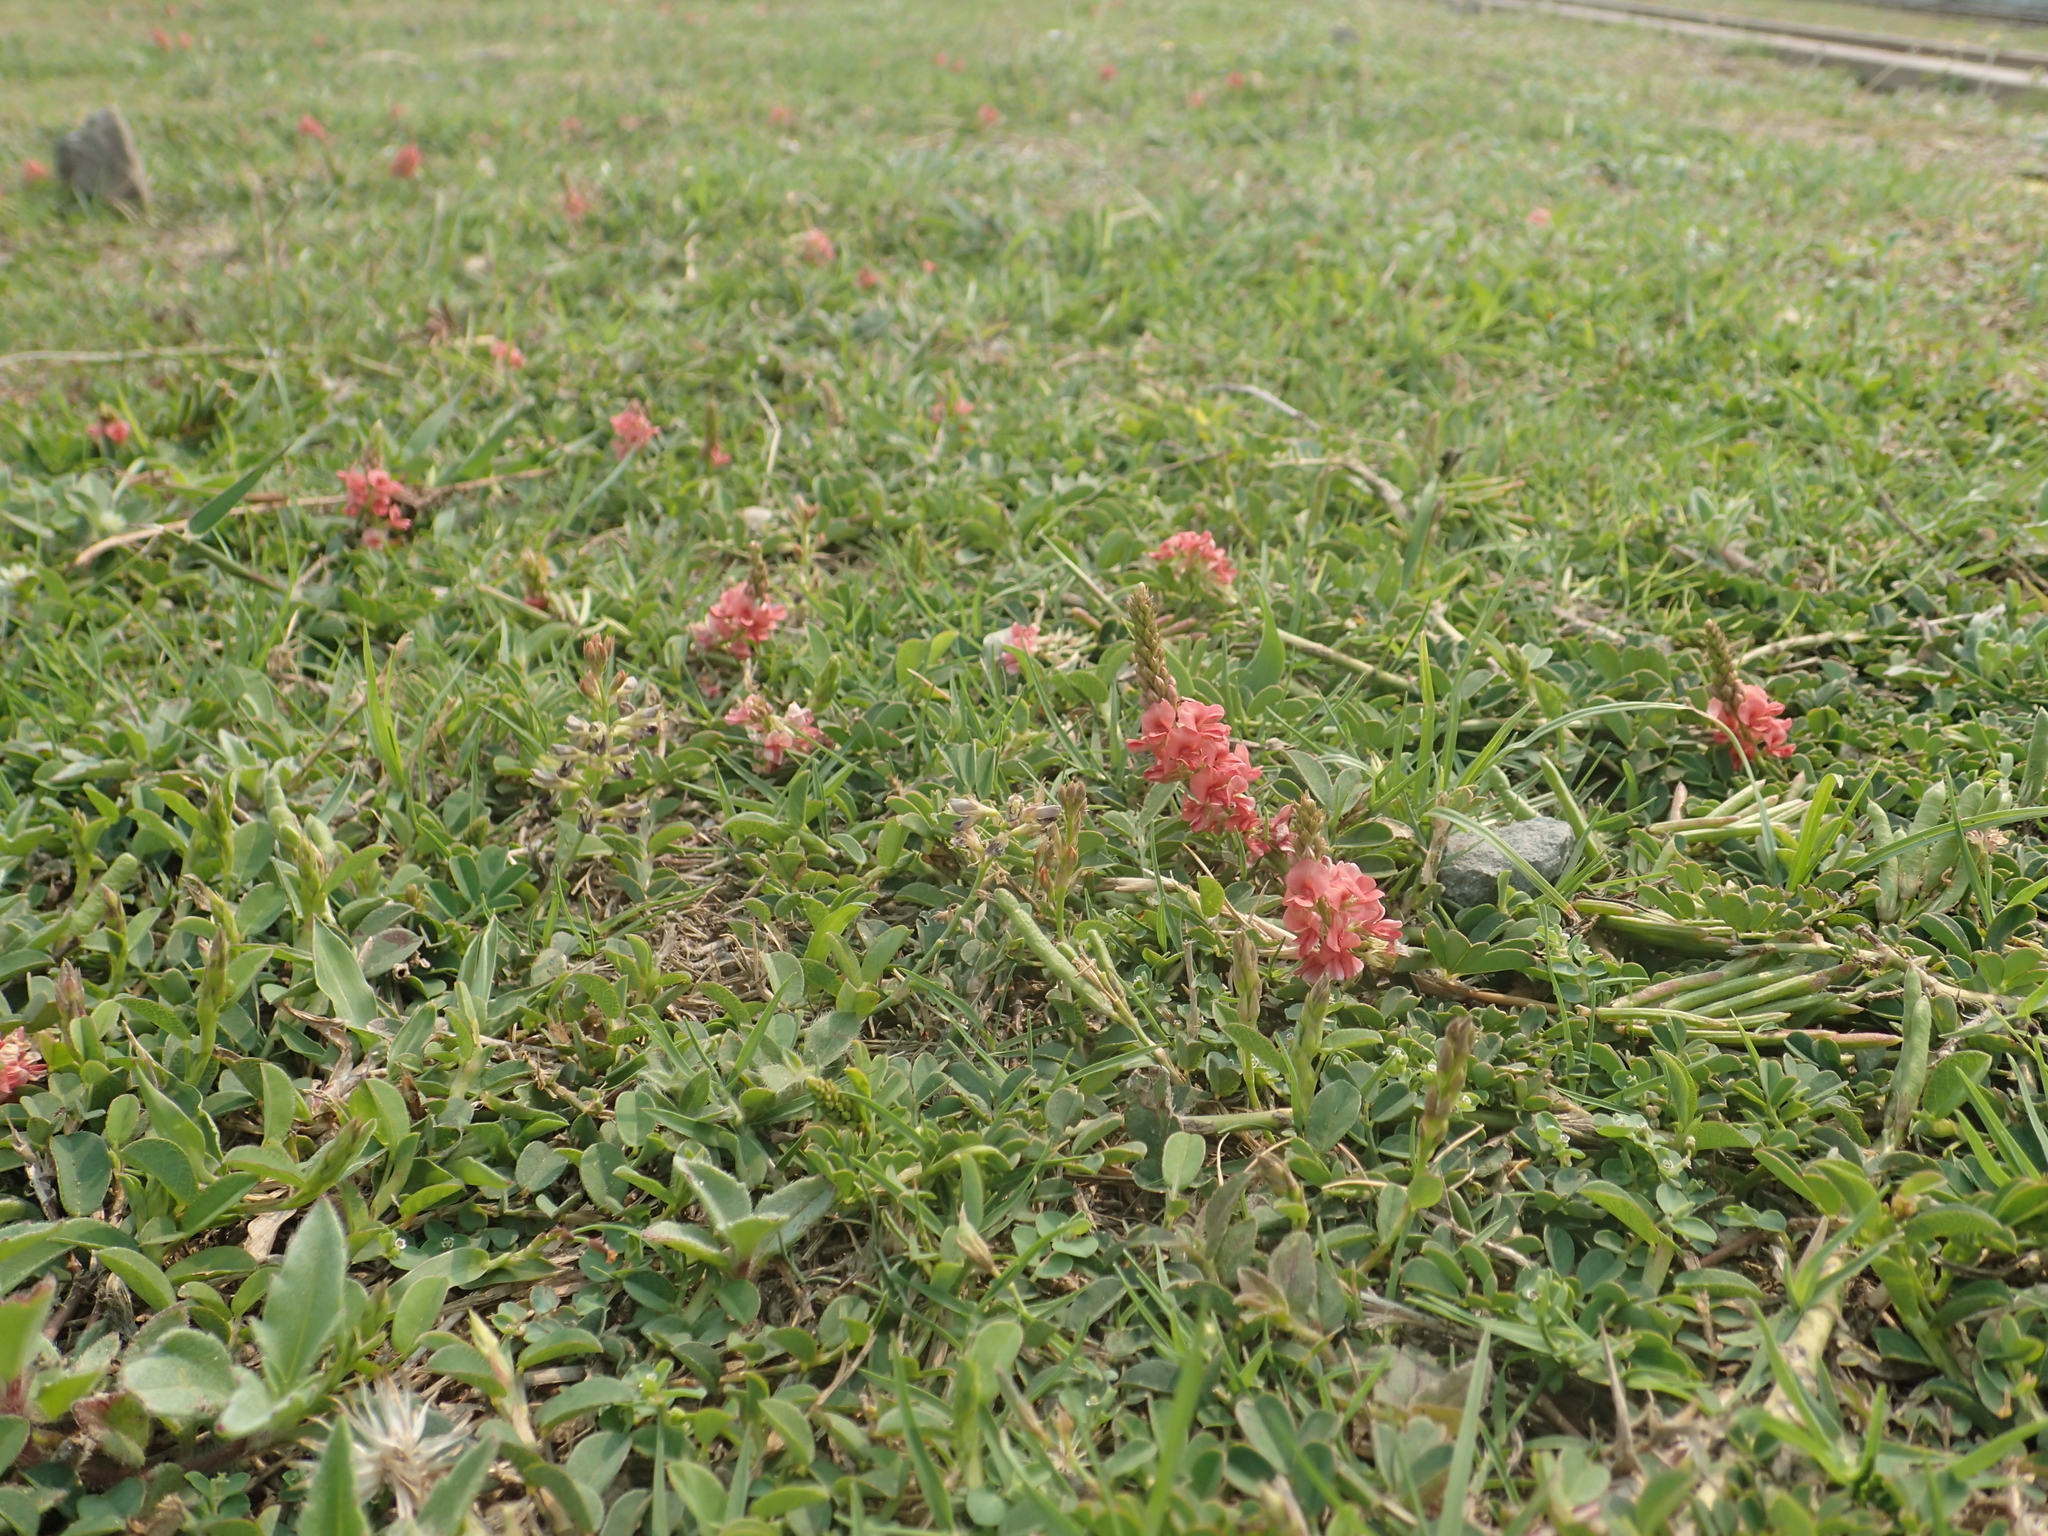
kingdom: Plantae
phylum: Tracheophyta
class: Magnoliopsida
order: Fabales
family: Fabaceae
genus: Indigofera
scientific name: Indigofera spicata
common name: Creeping indigo
